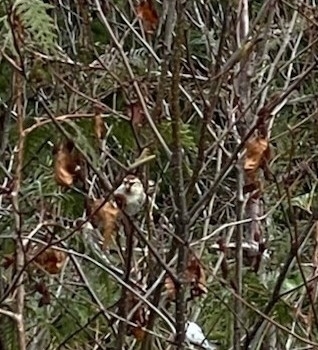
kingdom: Animalia
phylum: Chordata
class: Aves
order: Passeriformes
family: Fringillidae
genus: Acanthis
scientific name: Acanthis flammea
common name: Common redpoll
